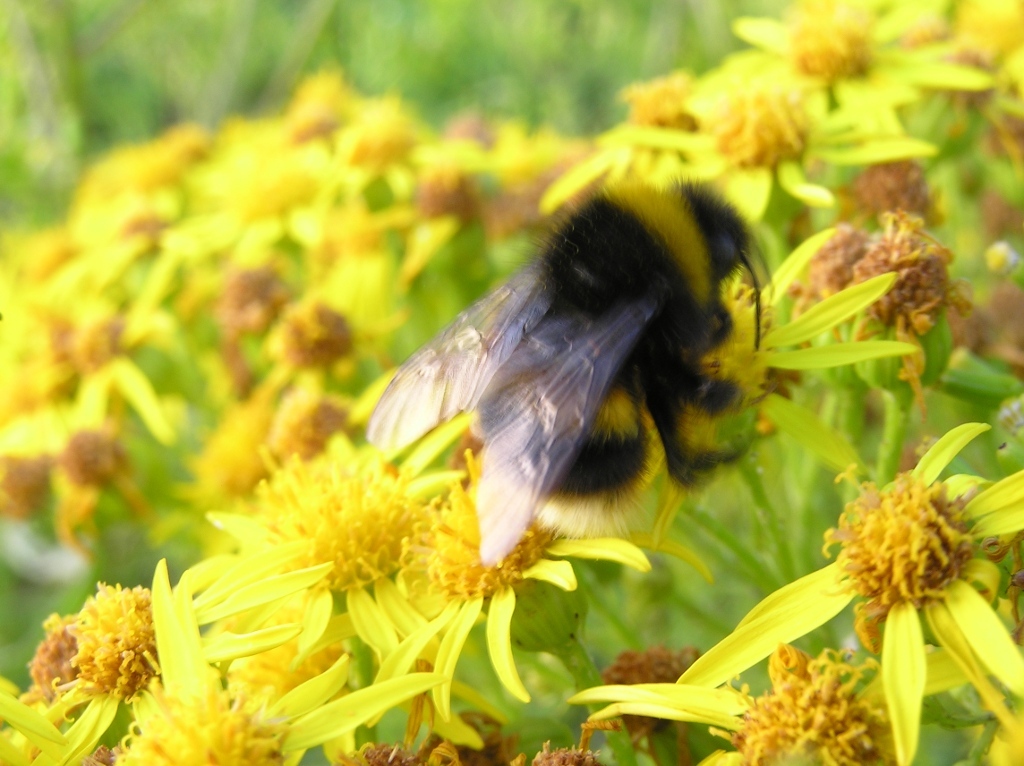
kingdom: Animalia
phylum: Arthropoda
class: Insecta
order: Hymenoptera
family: Apidae
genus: Bombus
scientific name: Bombus terrestris
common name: Buff-tailed bumblebee
